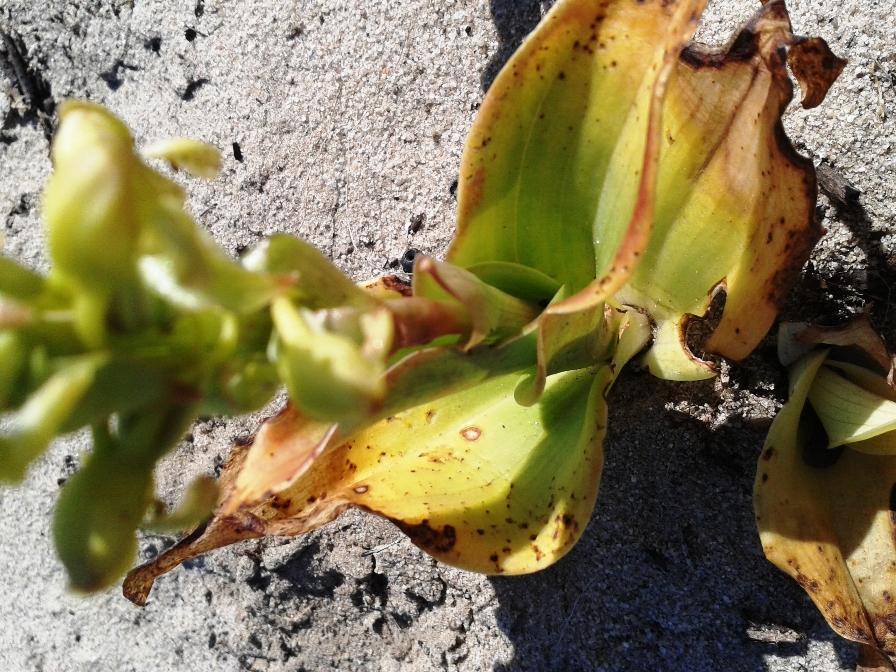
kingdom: Plantae
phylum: Tracheophyta
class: Liliopsida
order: Asparagales
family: Orchidaceae
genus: Satyrium
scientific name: Satyrium odorum
